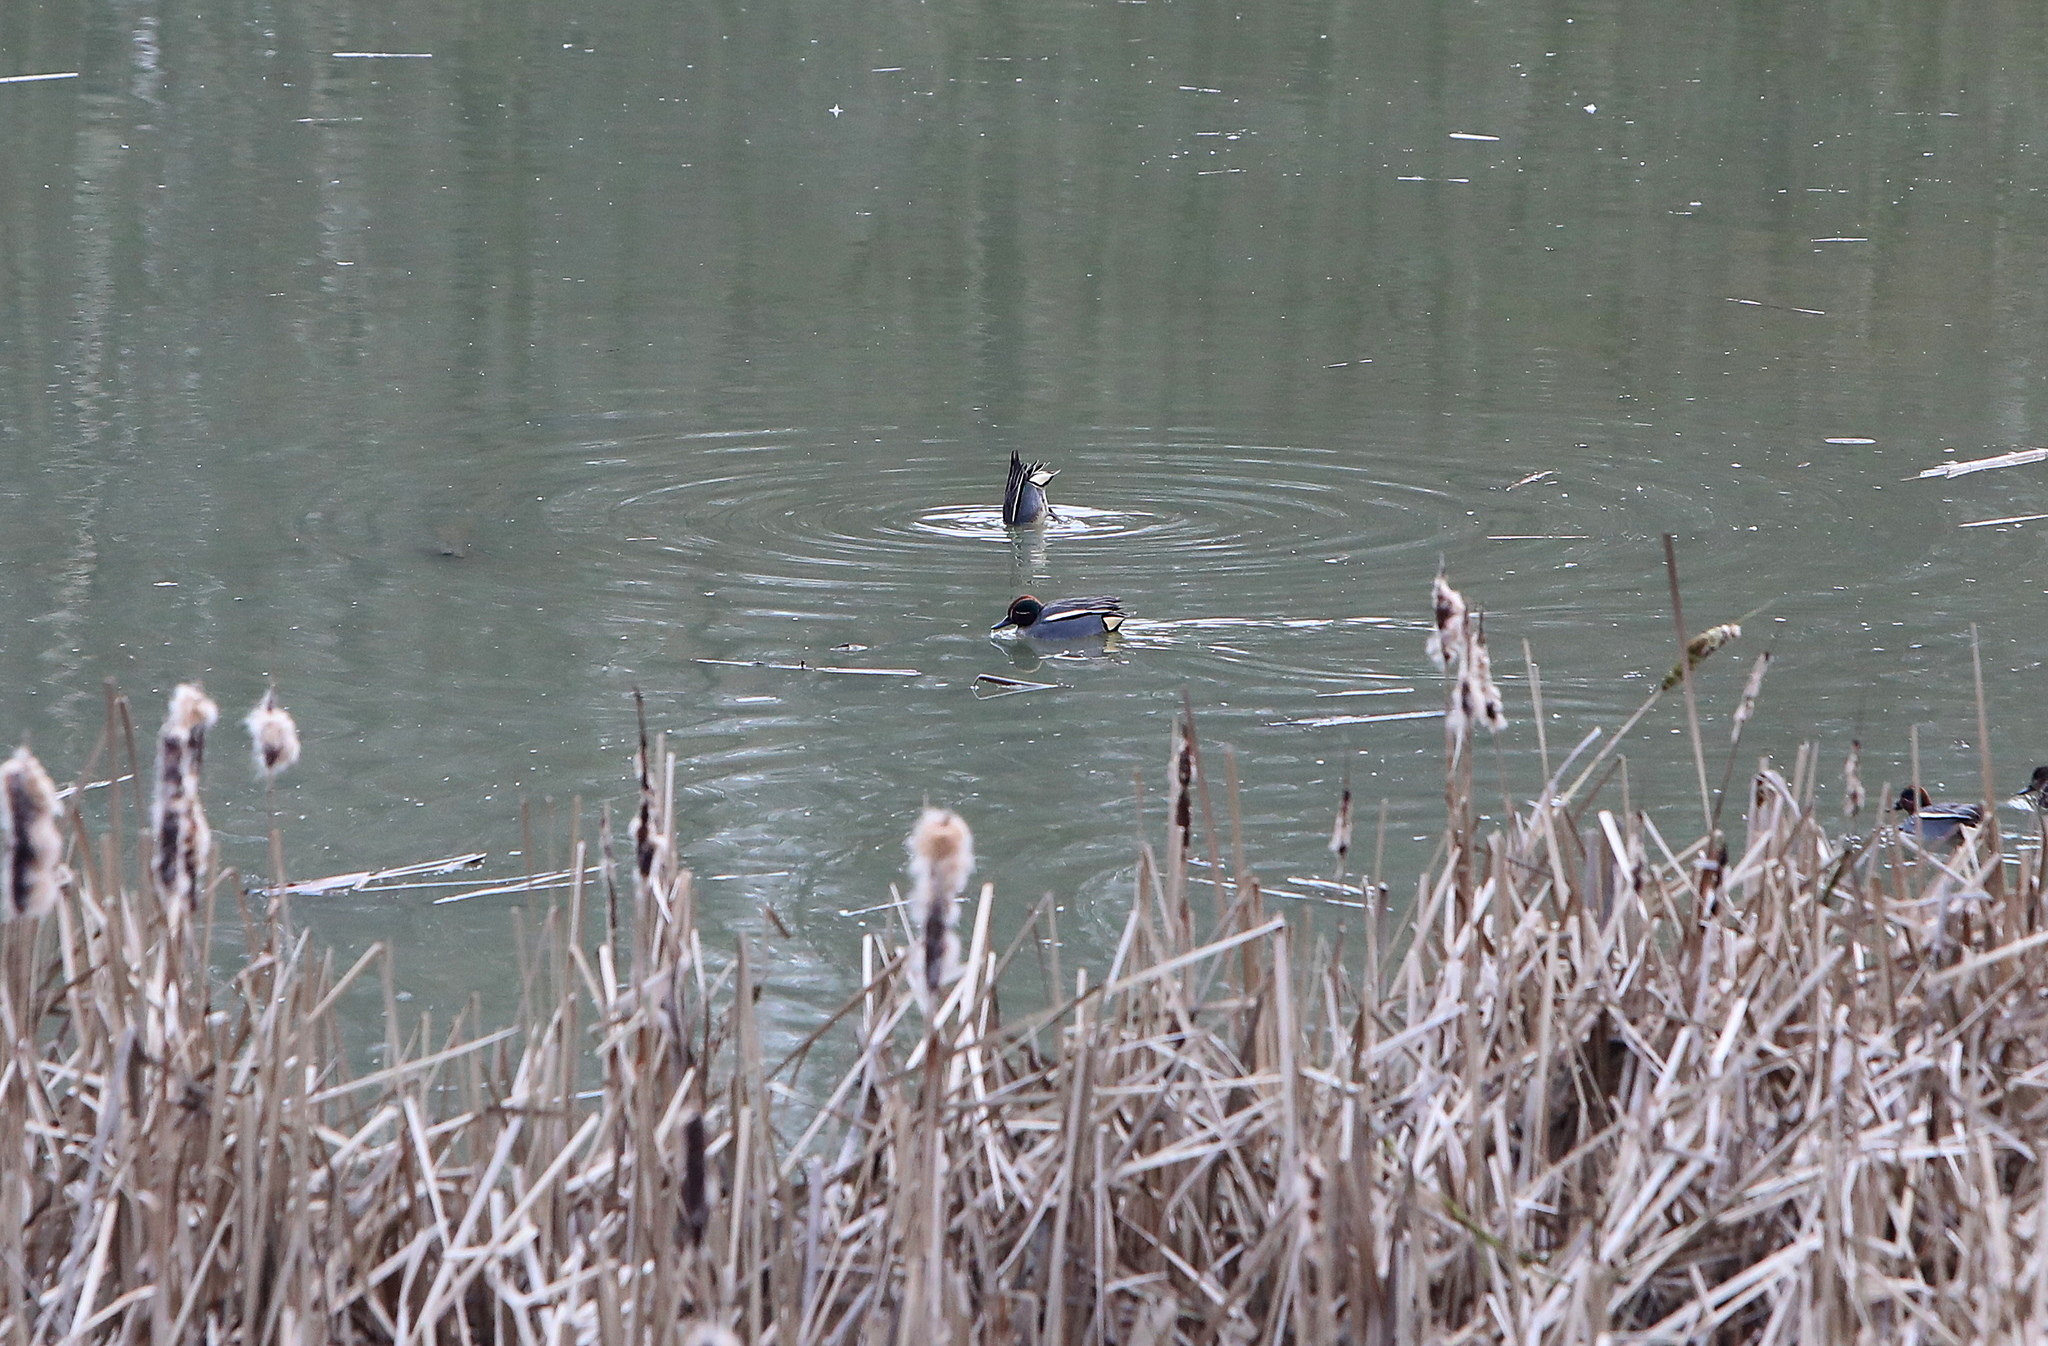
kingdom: Animalia
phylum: Chordata
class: Aves
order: Anseriformes
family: Anatidae
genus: Anas
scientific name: Anas crecca
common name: Eurasian teal
